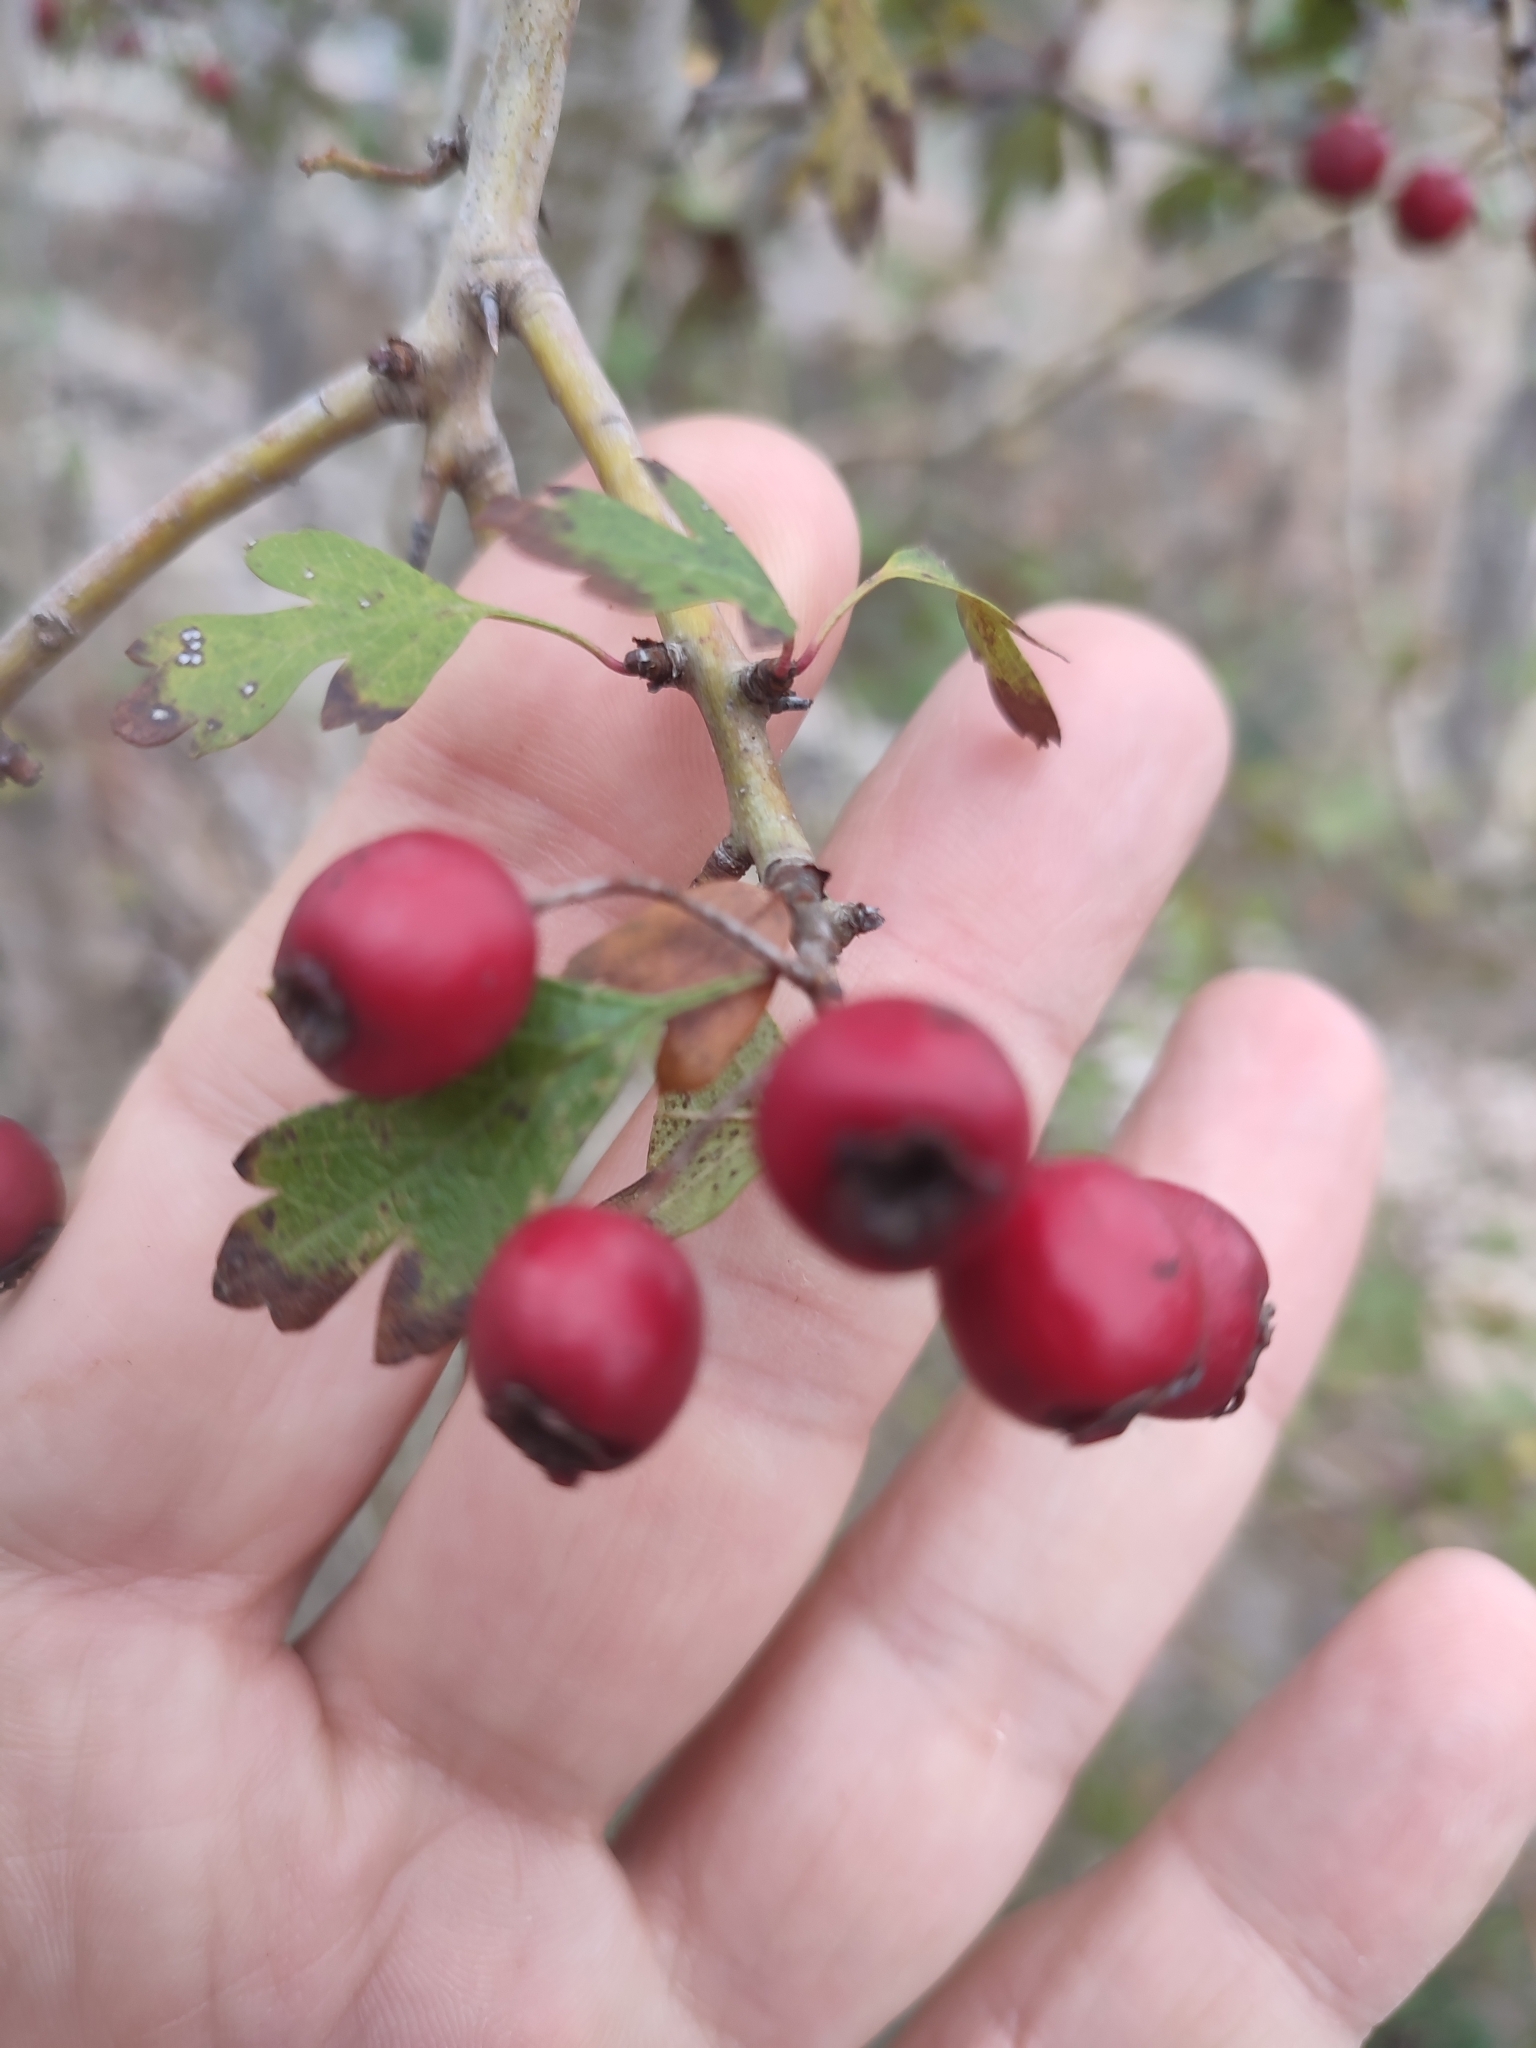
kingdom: Plantae
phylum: Tracheophyta
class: Magnoliopsida
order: Rosales
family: Rosaceae
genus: Crataegus
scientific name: Crataegus monogyna
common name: Hawthorn
